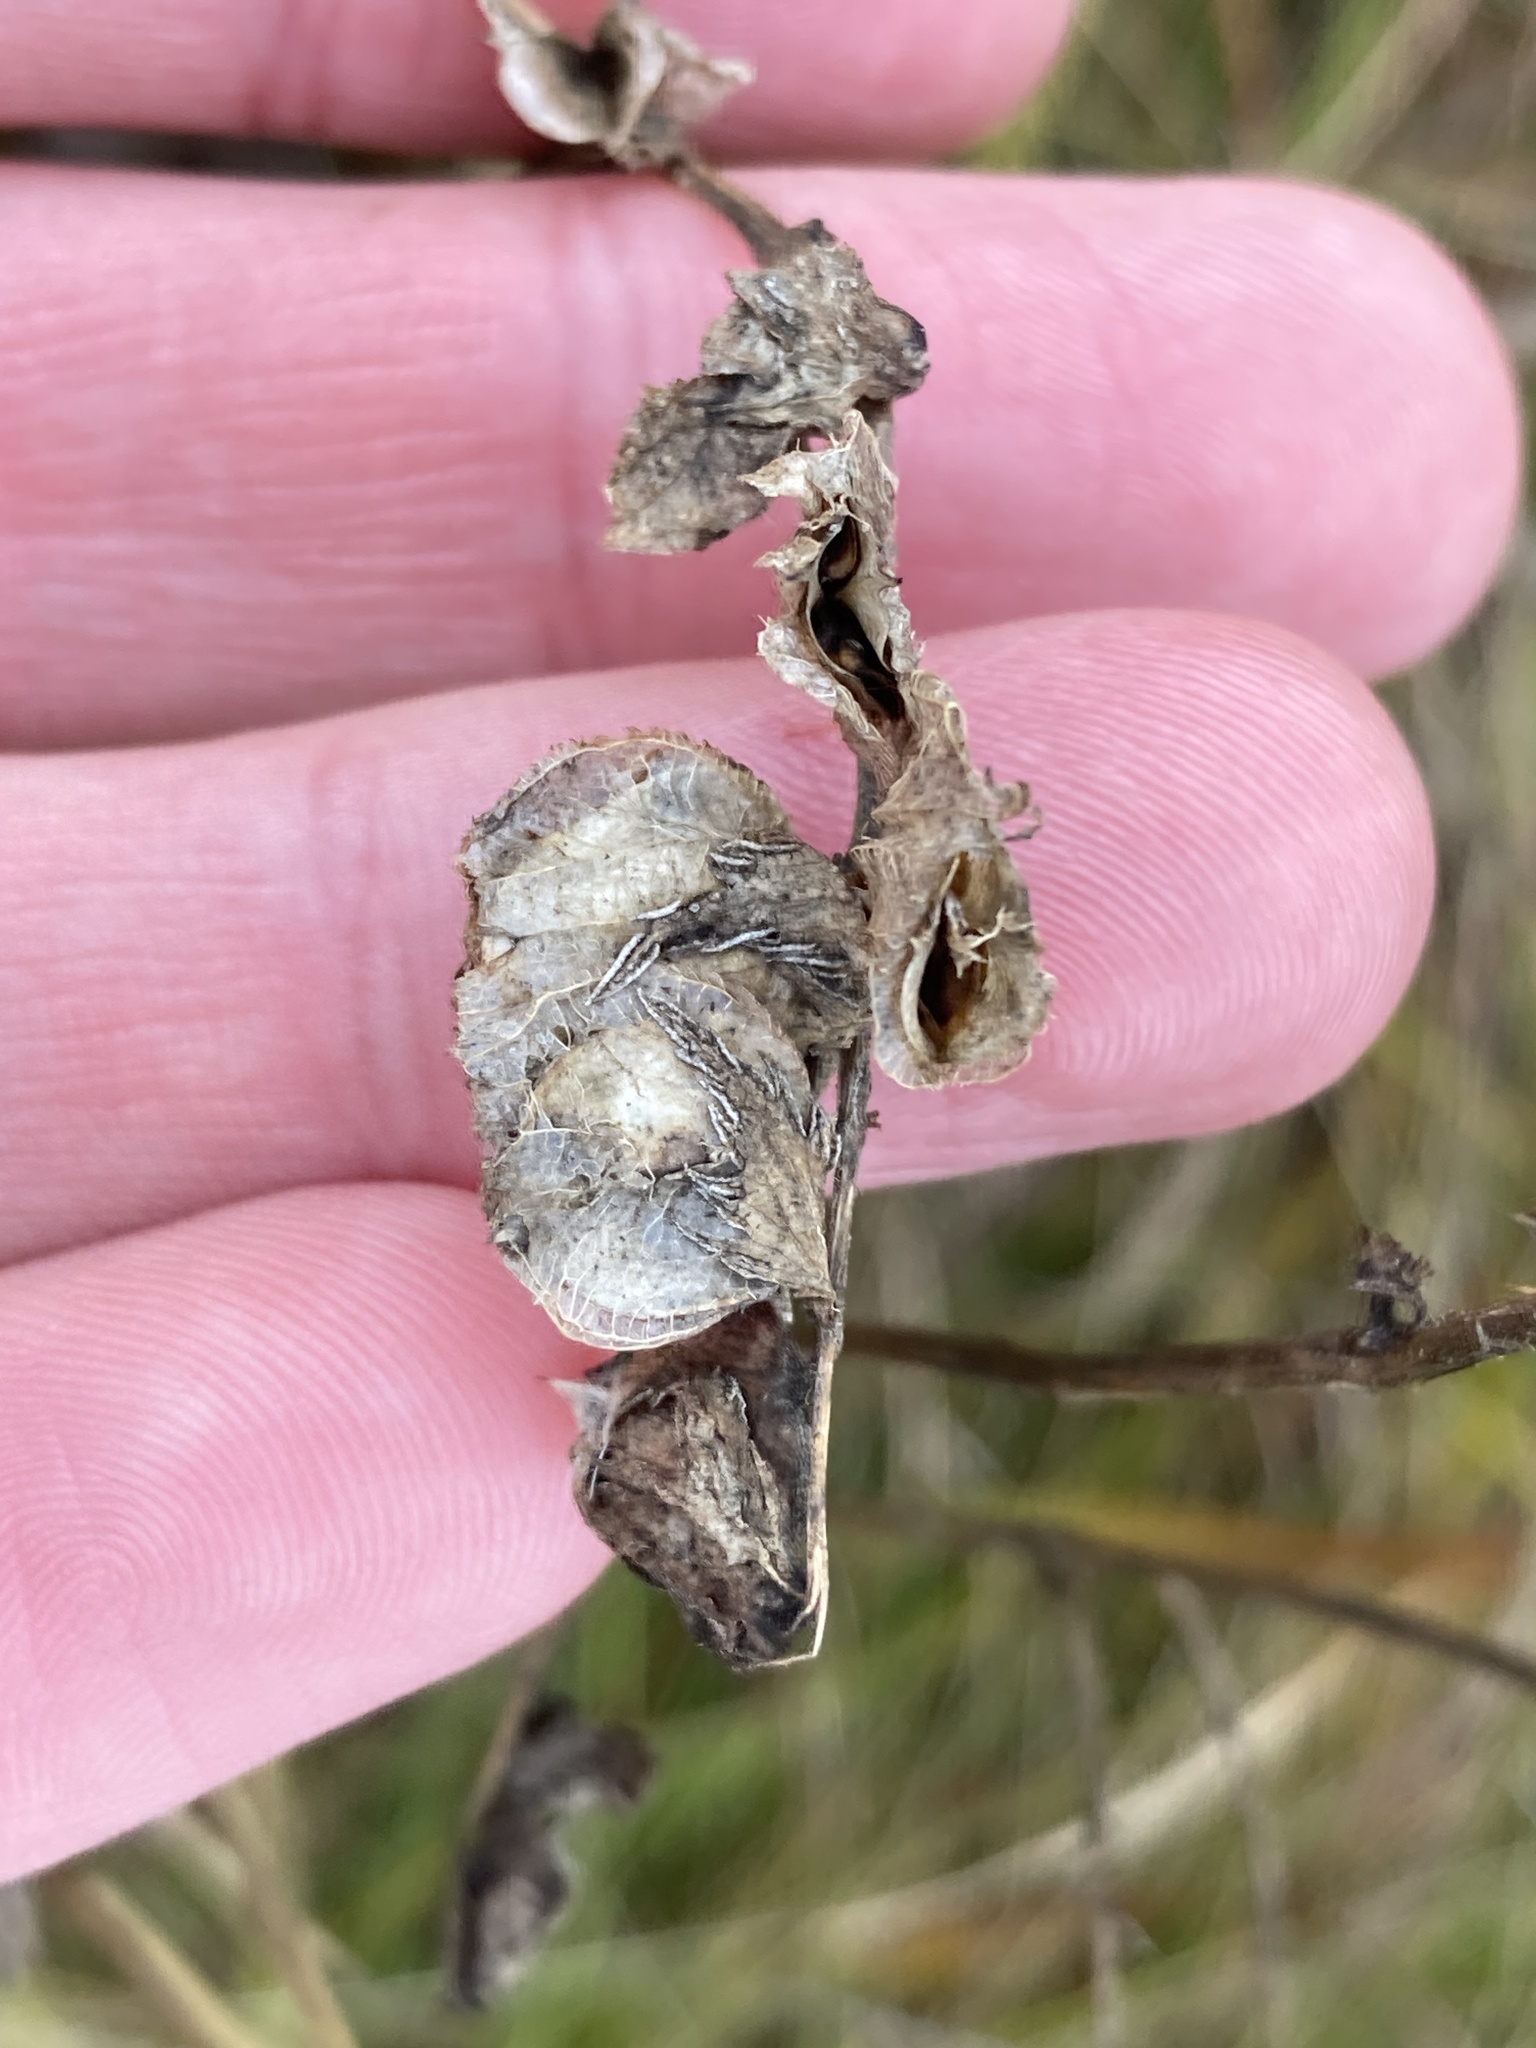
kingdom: Plantae
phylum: Tracheophyta
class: Magnoliopsida
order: Lamiales
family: Orobanchaceae
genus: Rhinanthus
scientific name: Rhinanthus serotinus
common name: Late-flowering yellow rattle
